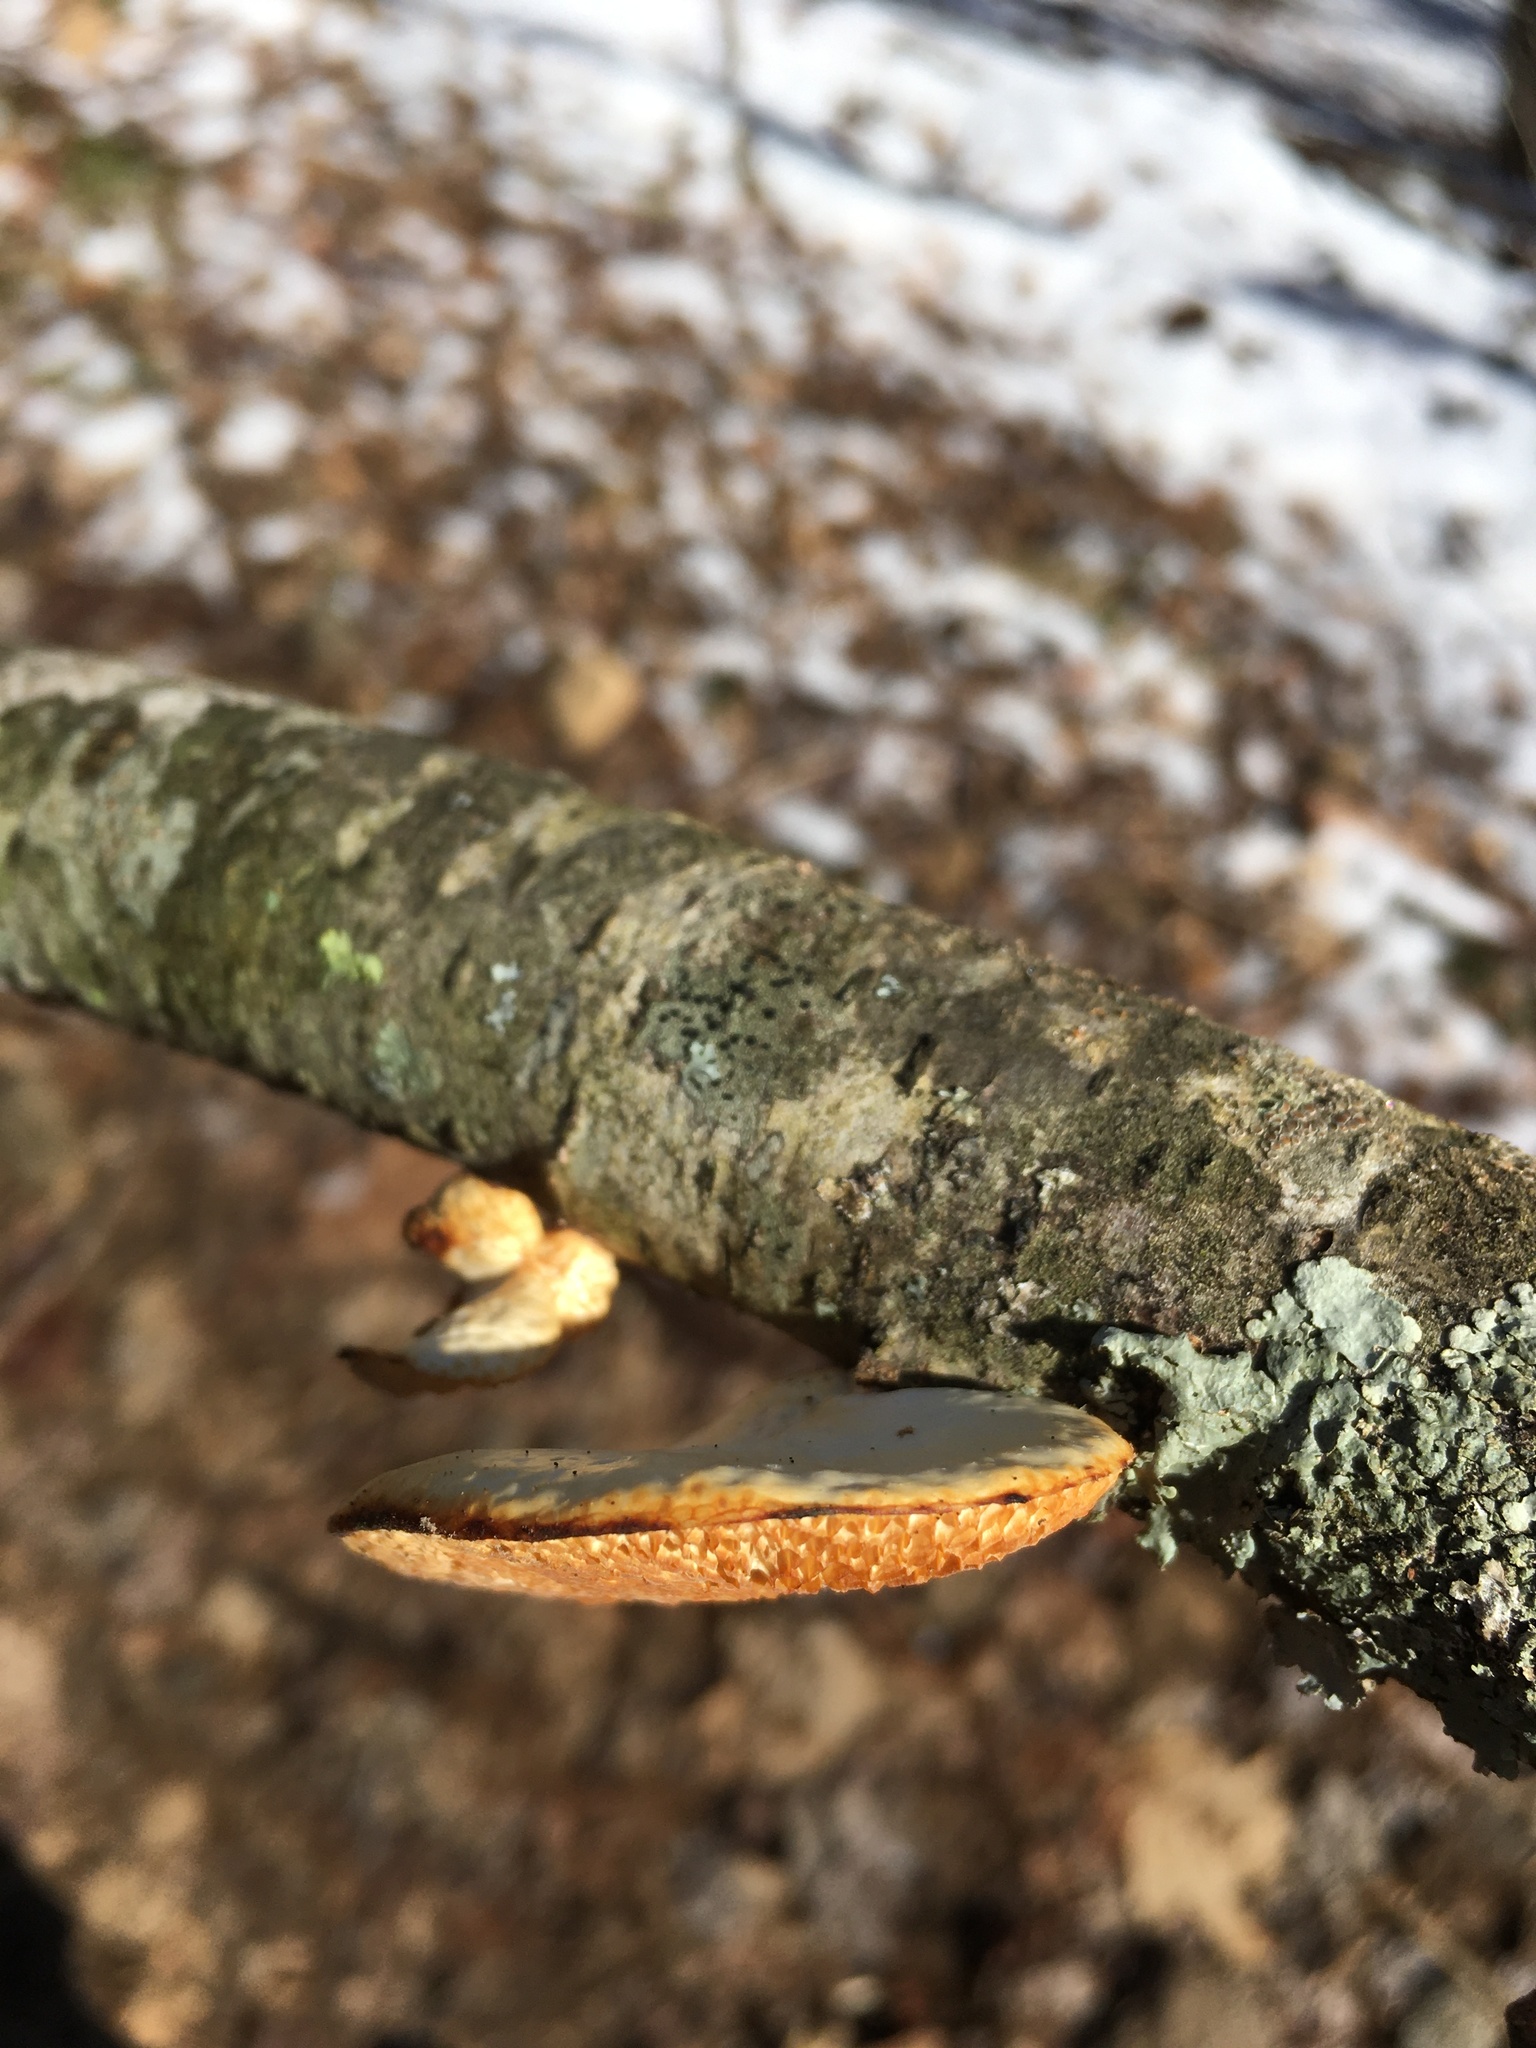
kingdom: Fungi
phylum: Basidiomycota
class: Agaricomycetes
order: Polyporales
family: Polyporaceae
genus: Neofavolus
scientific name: Neofavolus alveolaris
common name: Hexagonal-pored polypore
